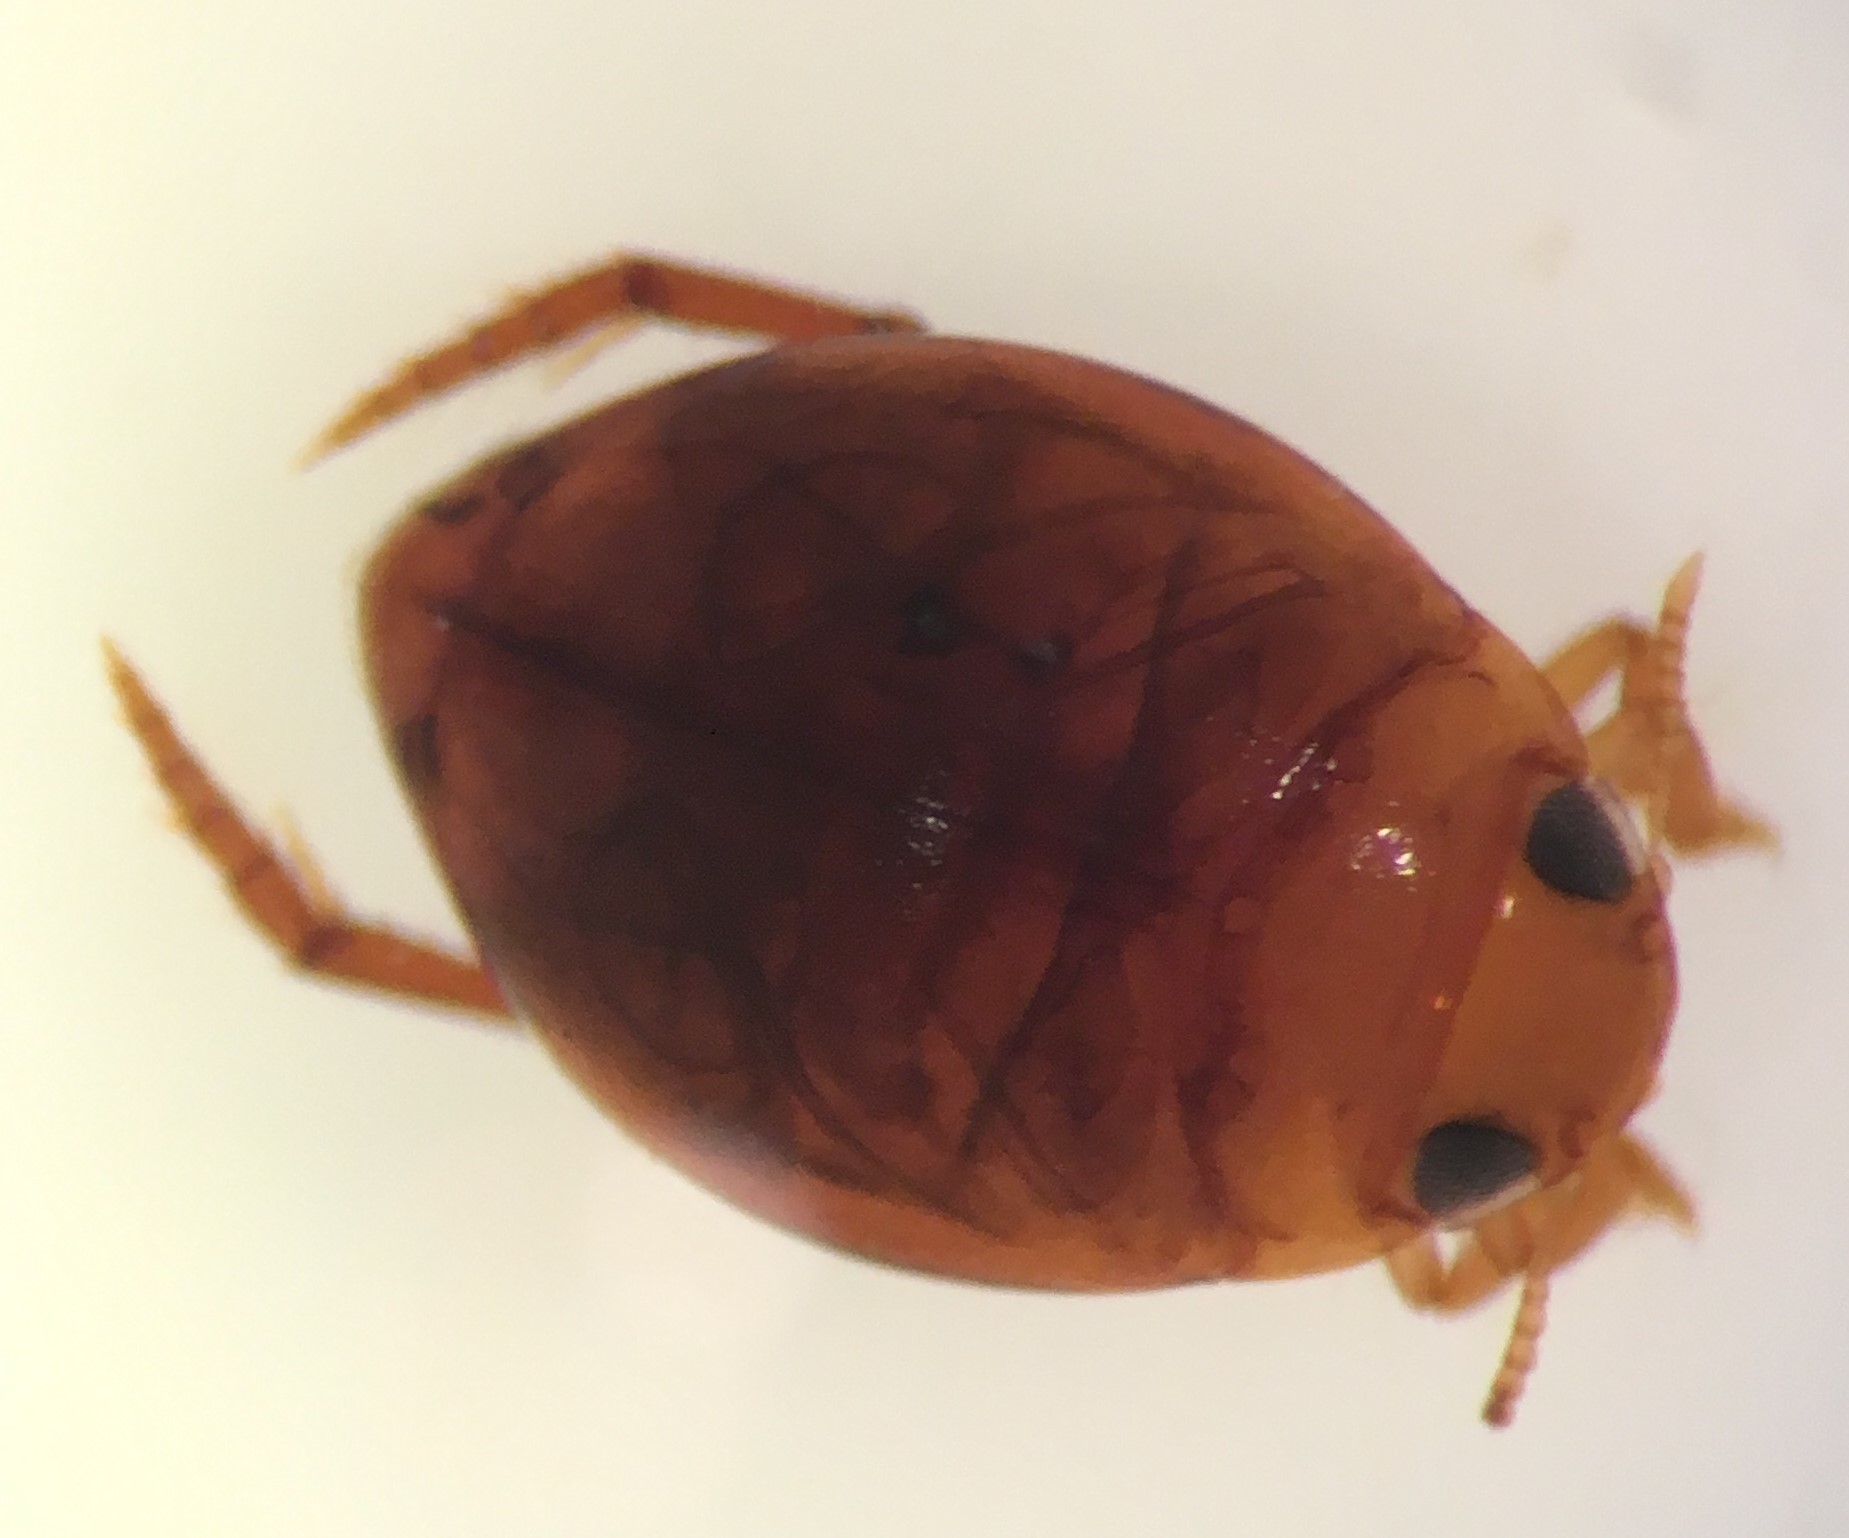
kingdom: Animalia
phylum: Arthropoda
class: Insecta
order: Coleoptera
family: Dytiscidae
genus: Desmopachria
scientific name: Desmopachria granum
